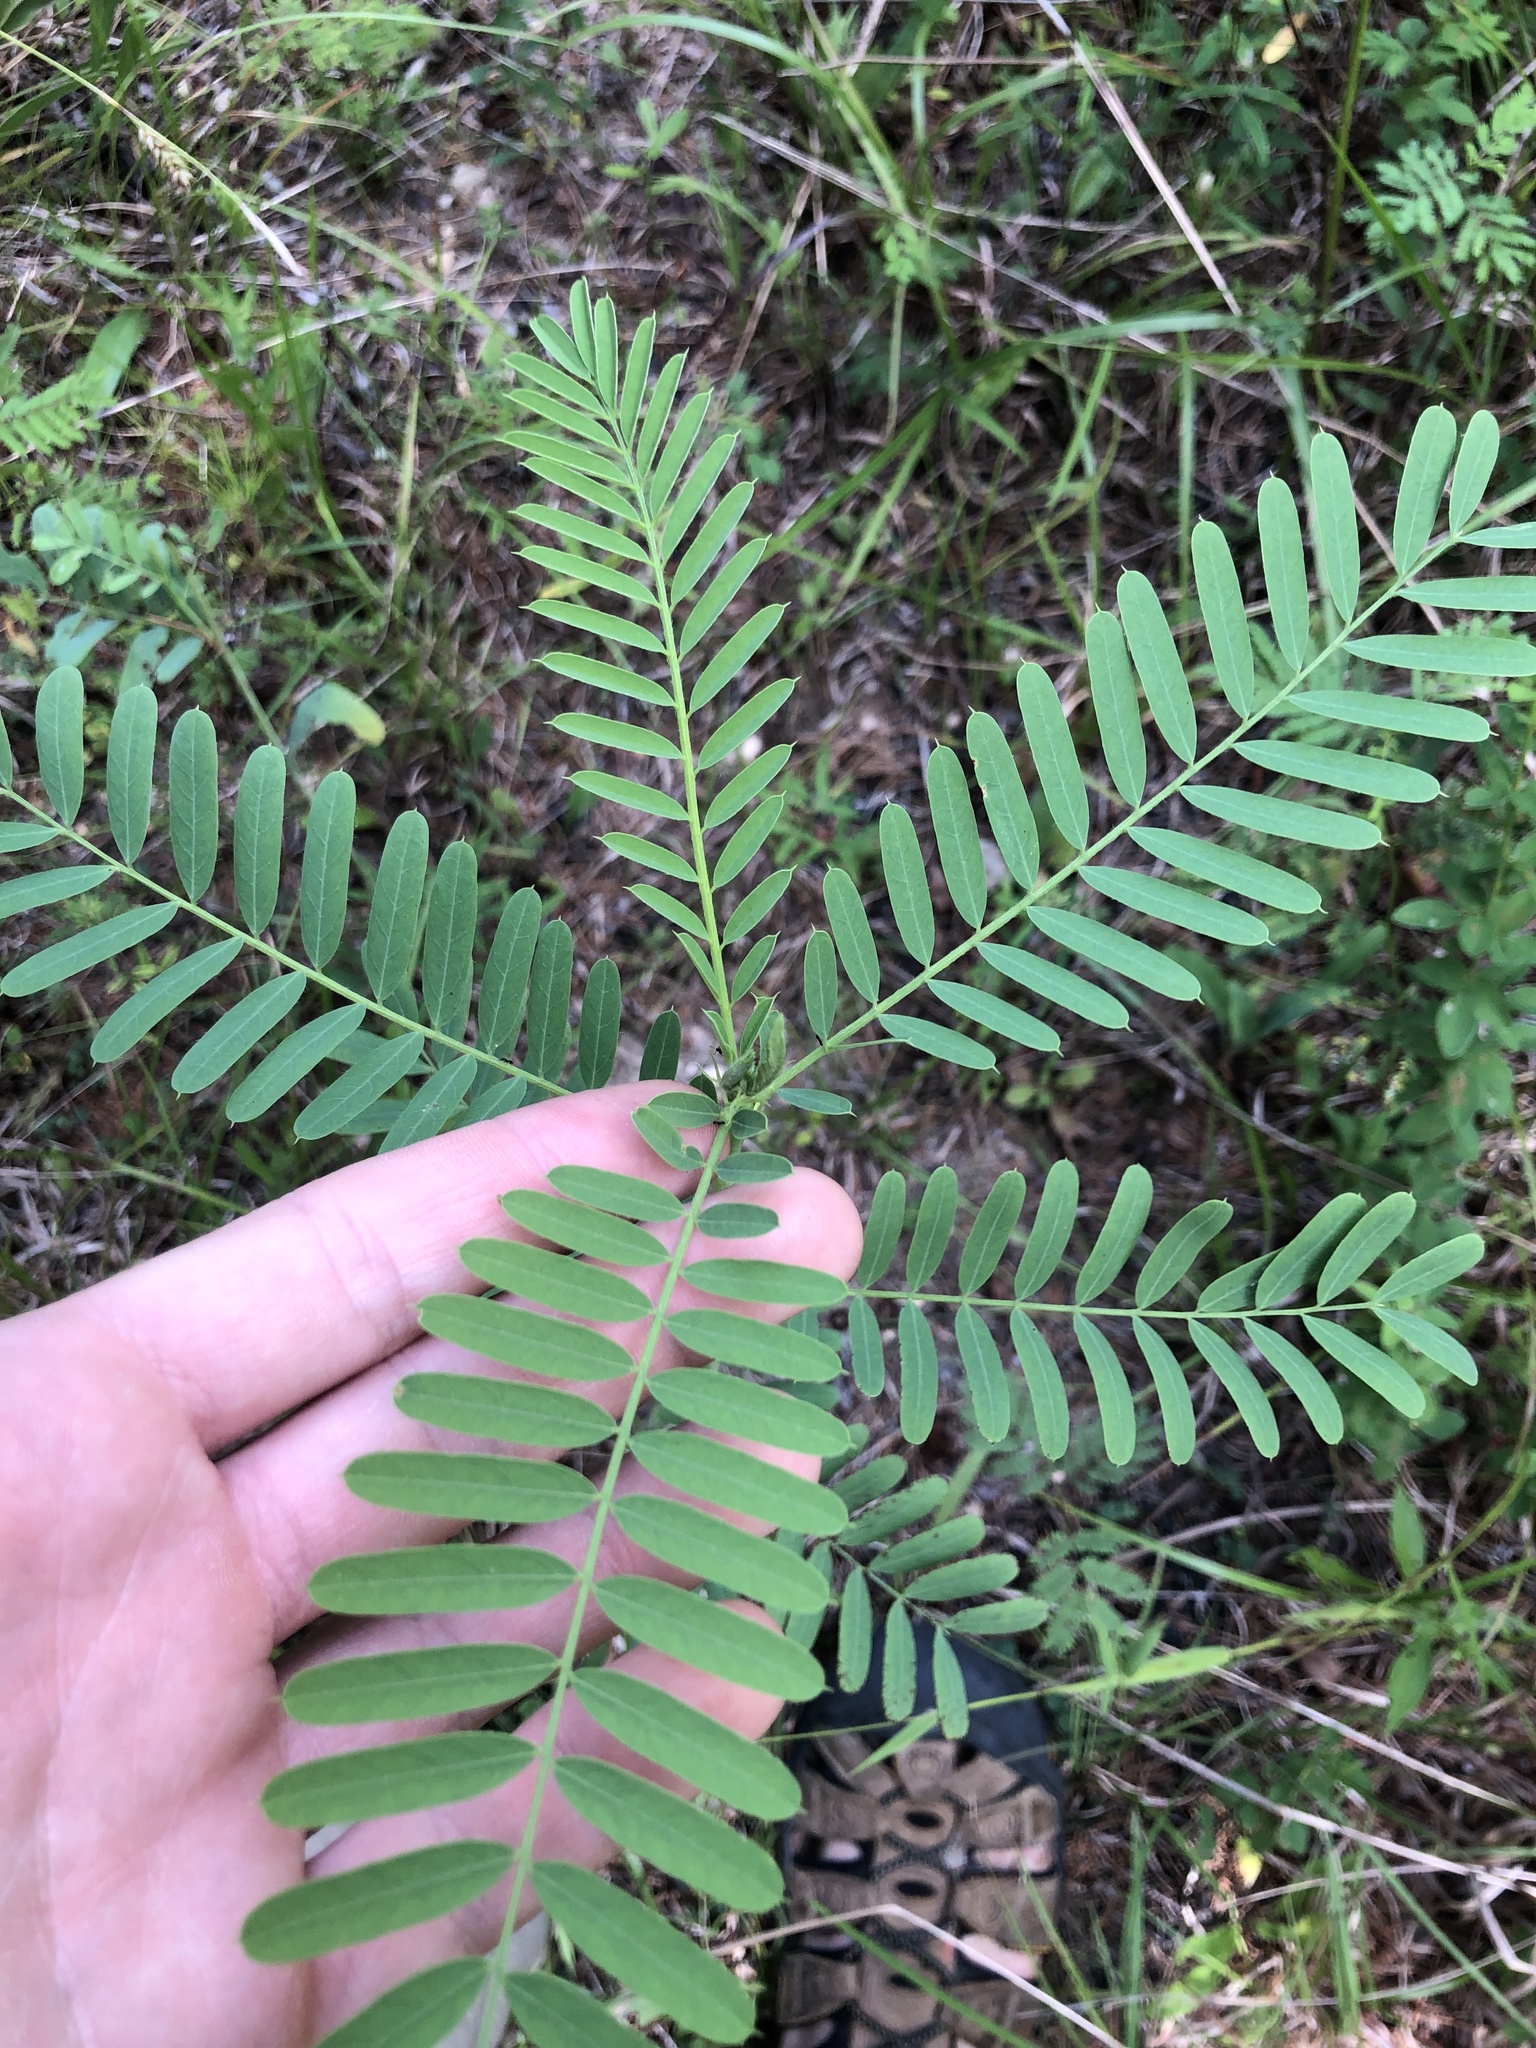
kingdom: Plantae
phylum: Tracheophyta
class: Magnoliopsida
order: Fabales
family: Fabaceae
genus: Sesbania
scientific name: Sesbania vesicaria
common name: Bagpod
